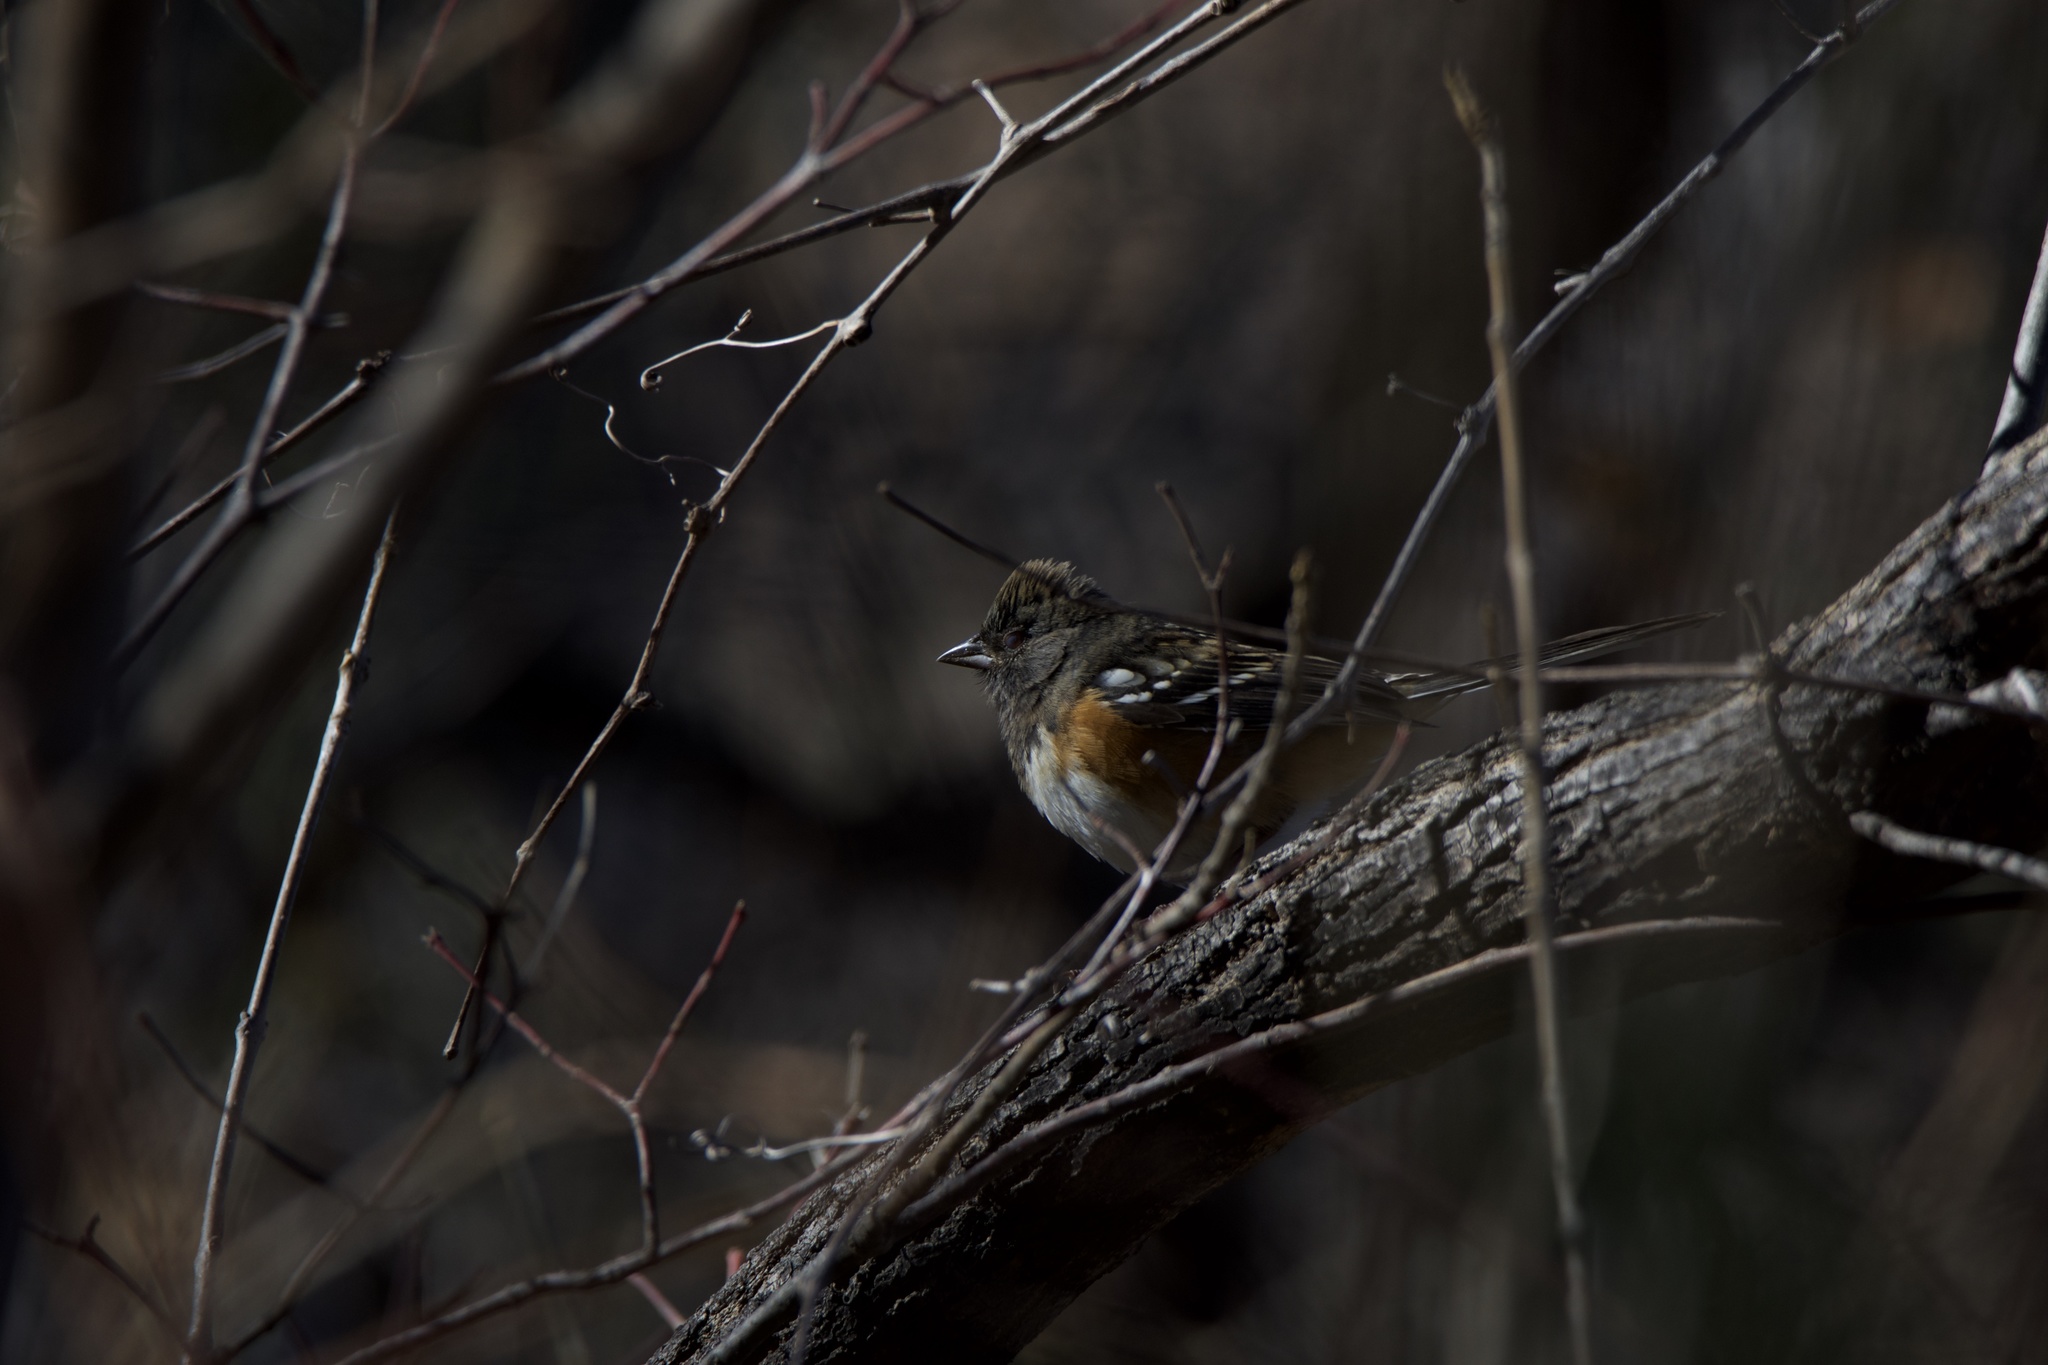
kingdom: Animalia
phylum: Chordata
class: Aves
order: Passeriformes
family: Passerellidae
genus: Pipilo
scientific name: Pipilo maculatus
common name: Spotted towhee
